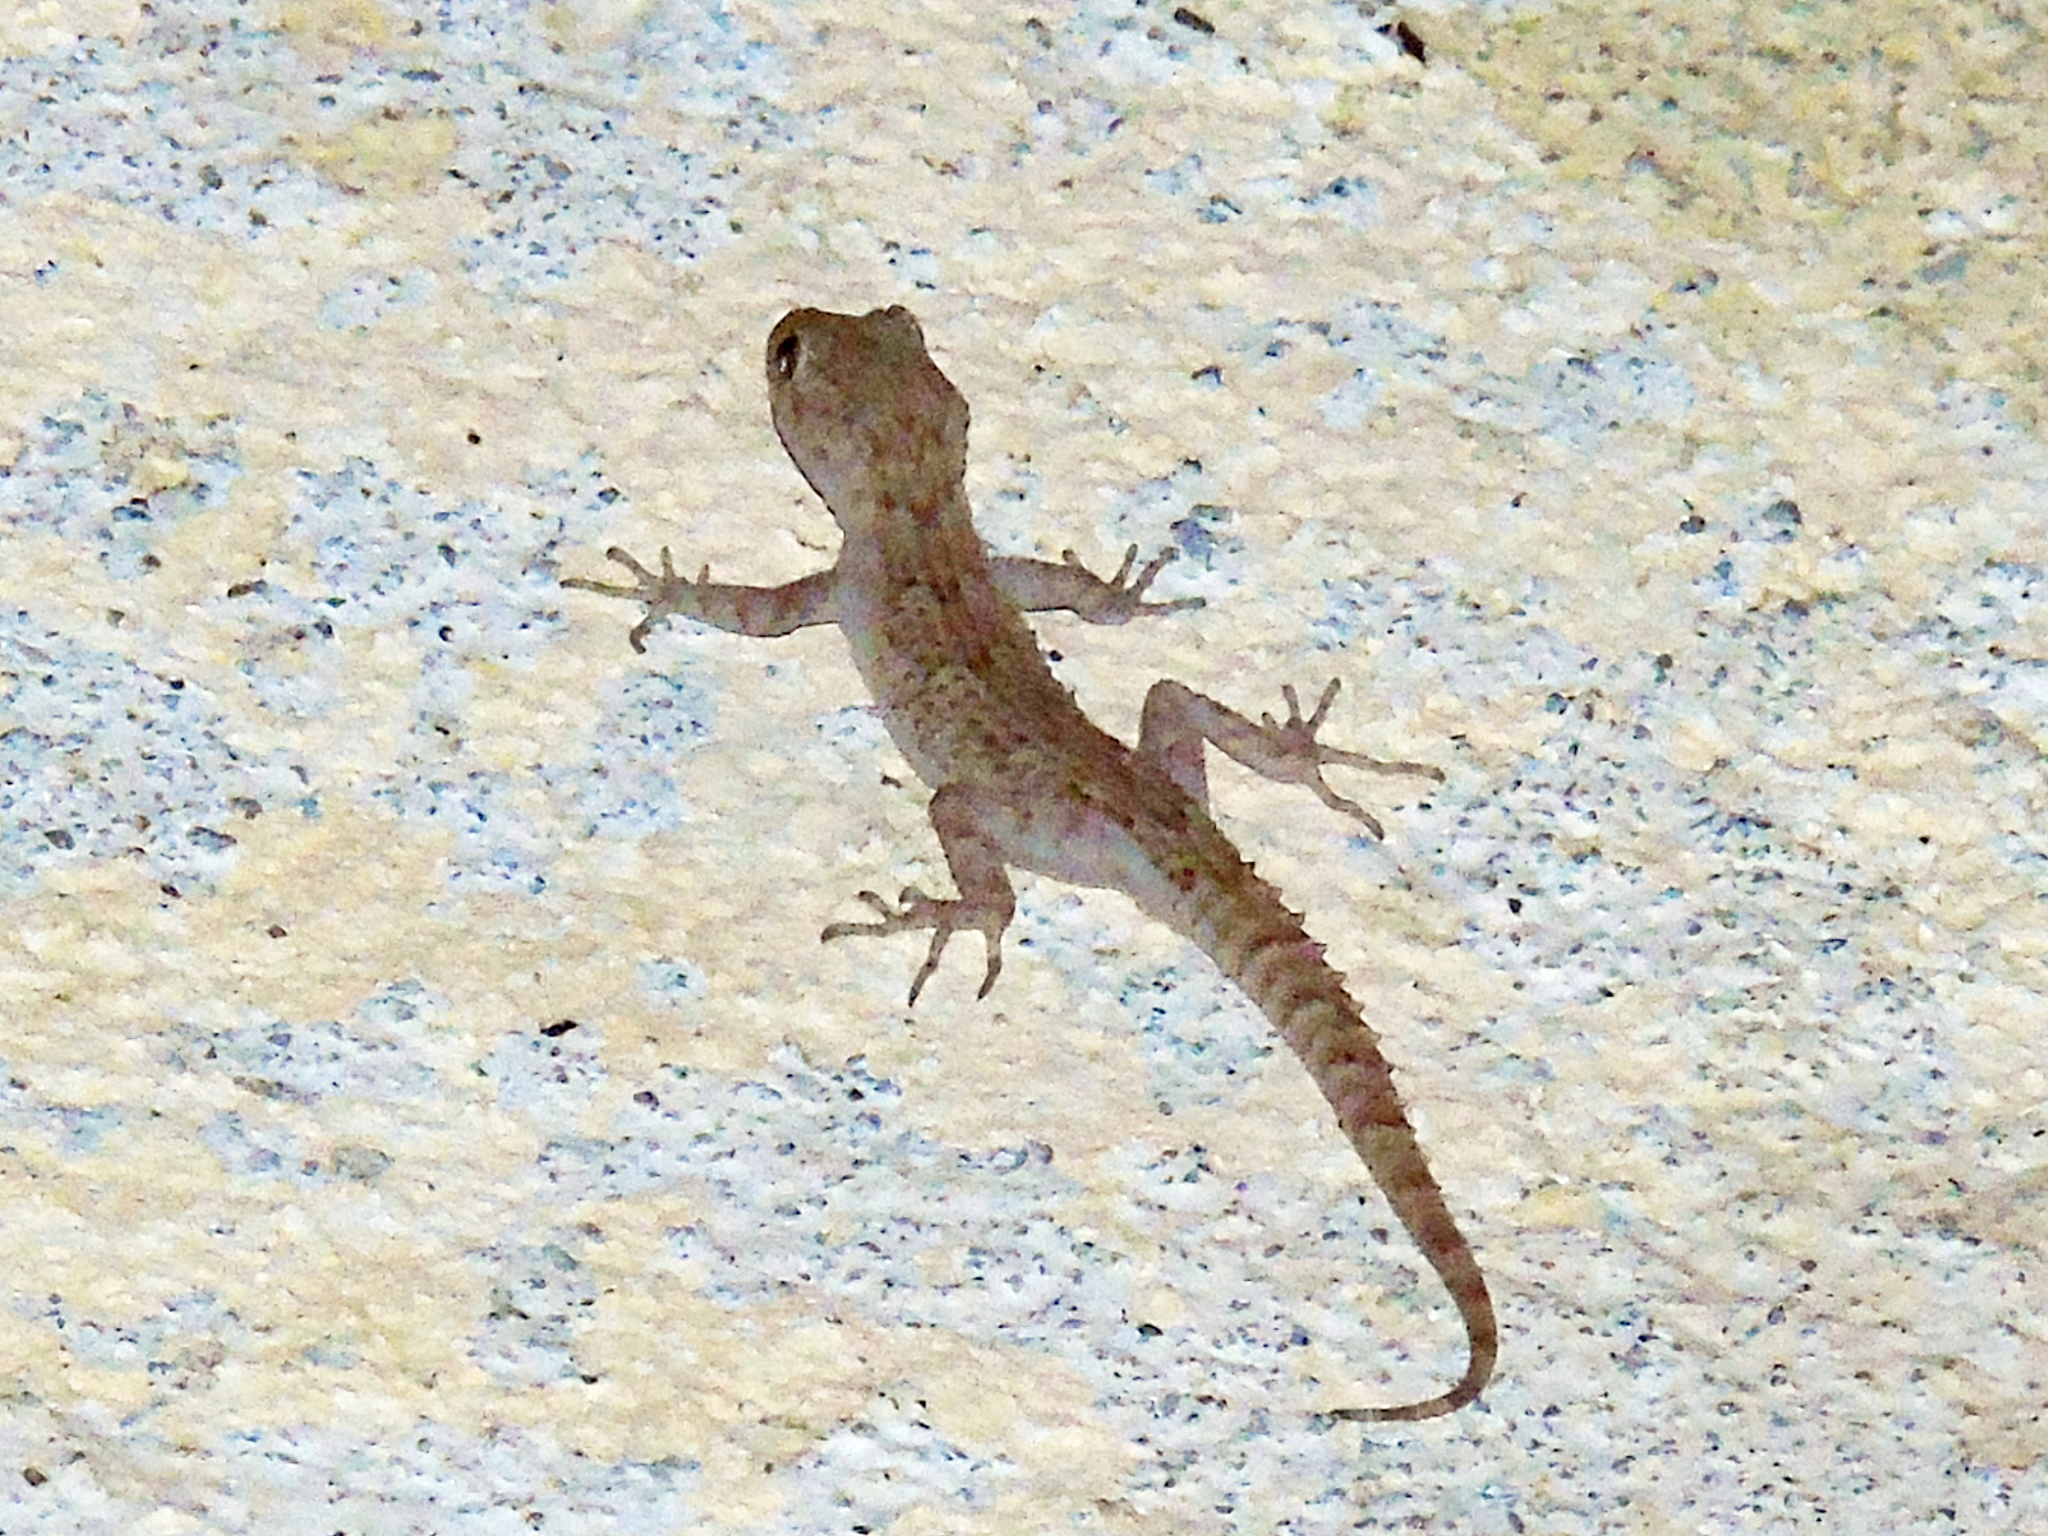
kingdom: Animalia
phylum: Chordata
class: Squamata
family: Gekkonidae
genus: Mediodactylus
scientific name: Mediodactylus kotschyi
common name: Kotschy's gecko
